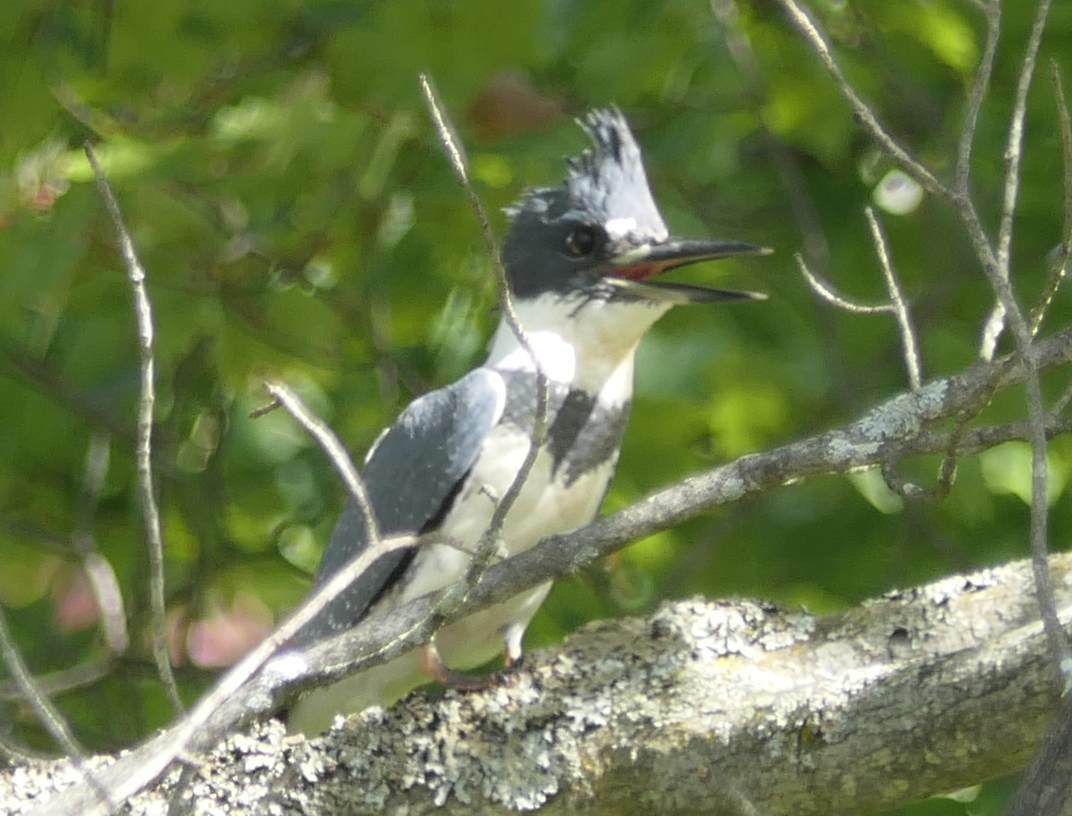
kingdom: Animalia
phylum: Chordata
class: Aves
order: Coraciiformes
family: Alcedinidae
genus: Megaceryle
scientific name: Megaceryle alcyon
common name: Belted kingfisher
